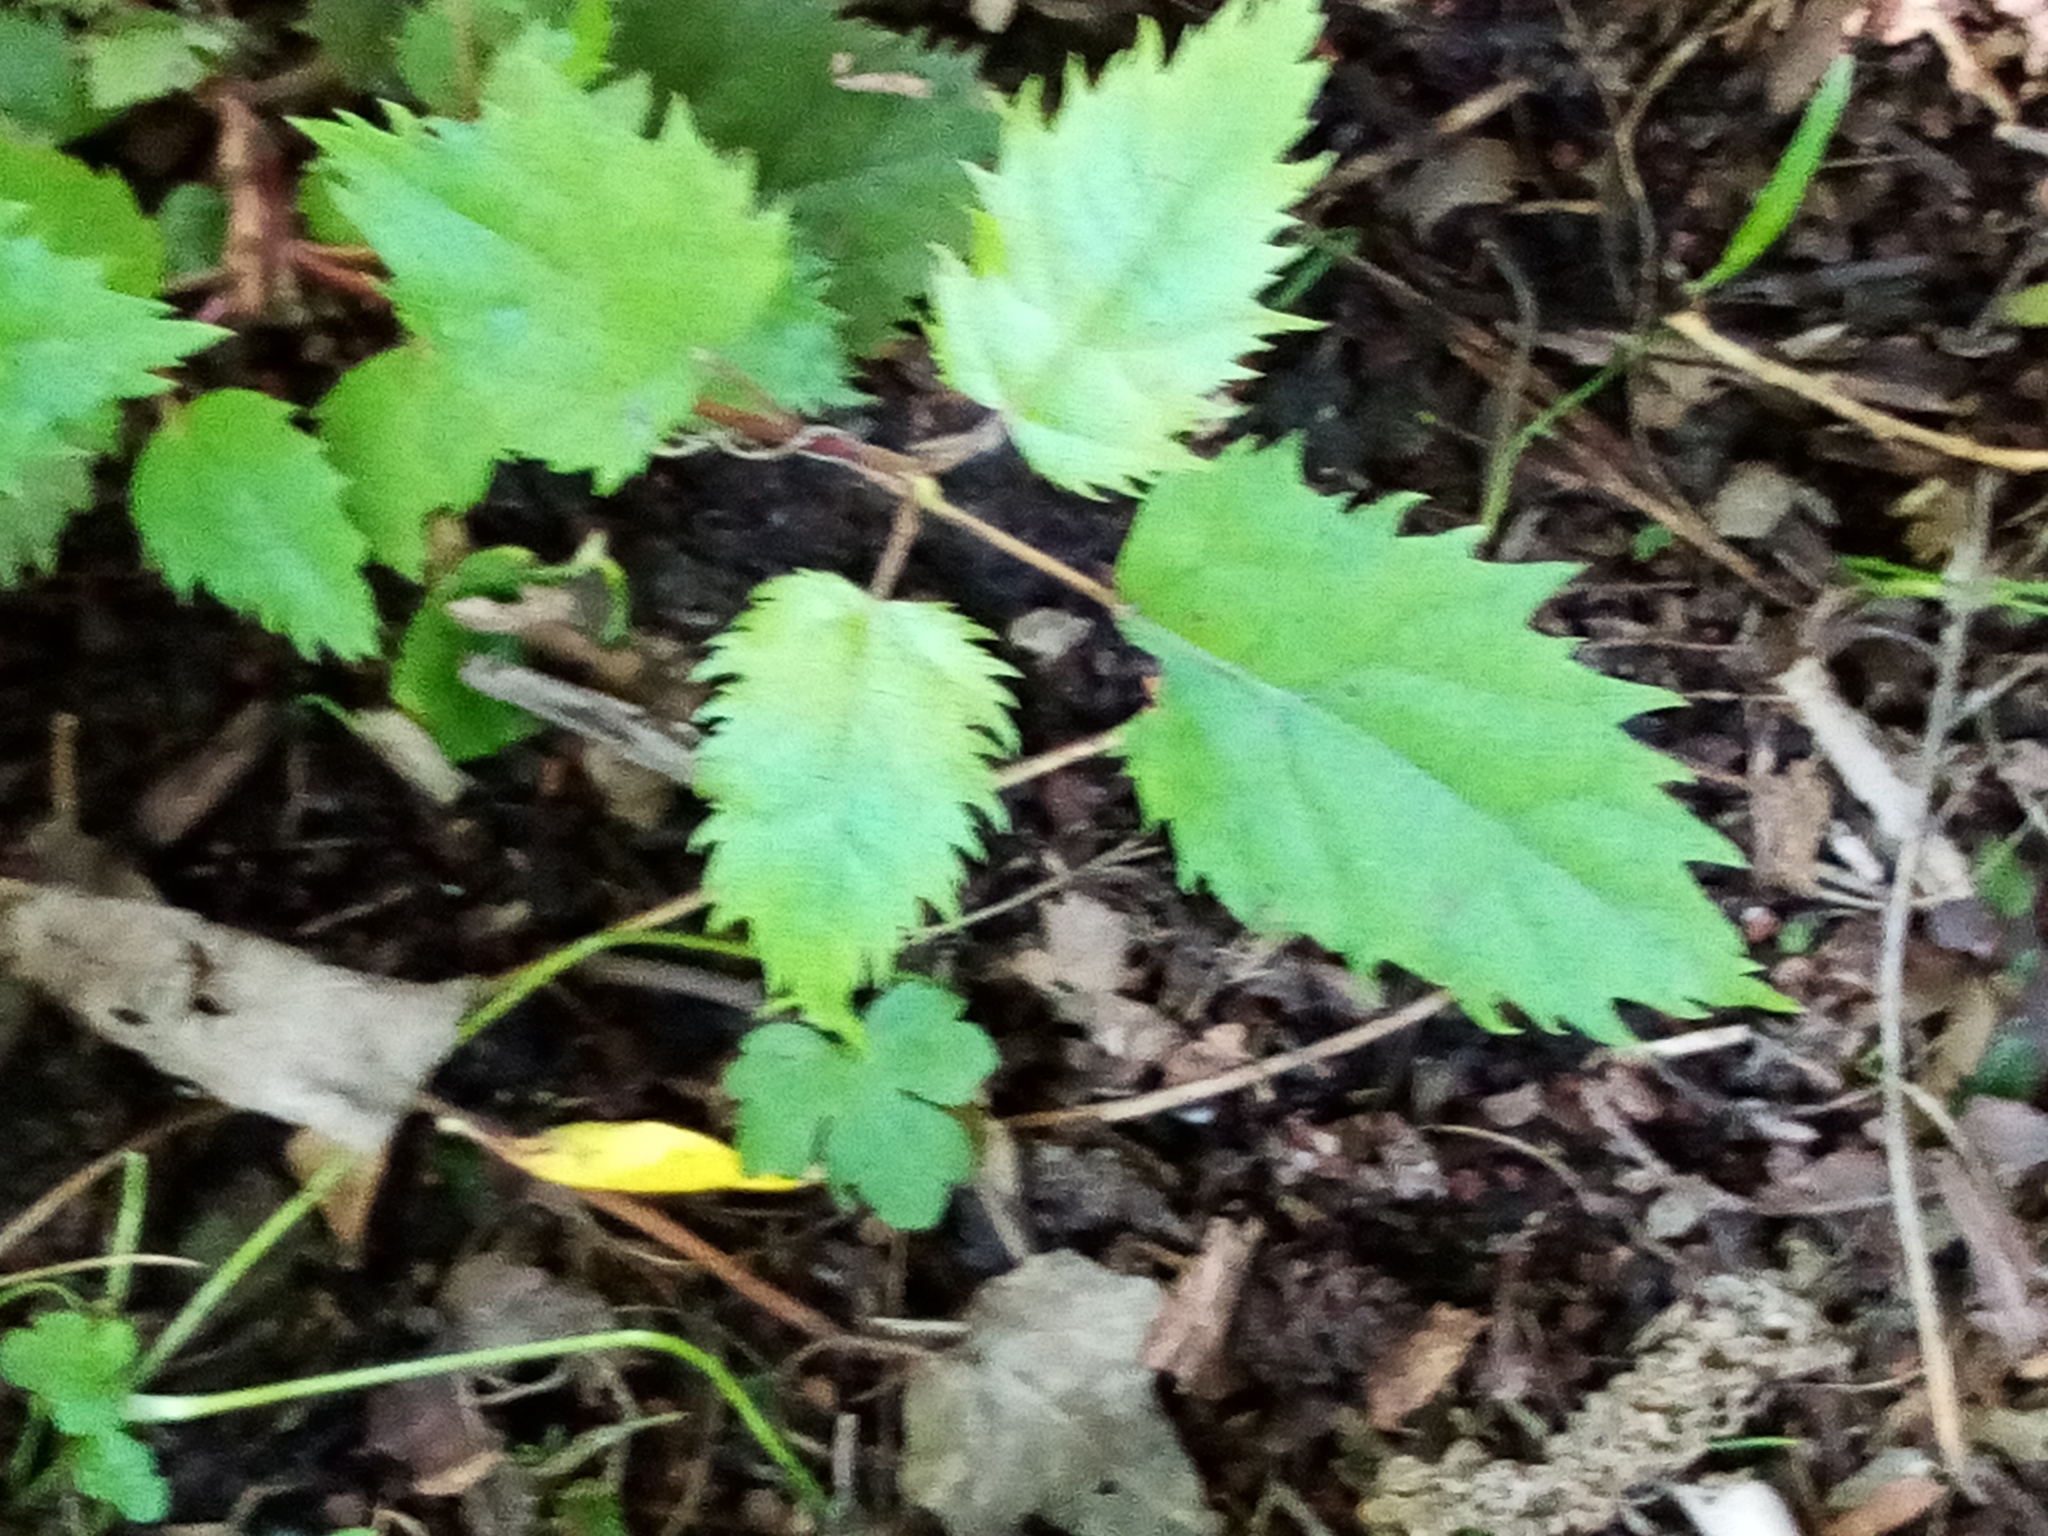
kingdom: Plantae
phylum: Tracheophyta
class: Magnoliopsida
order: Oxalidales
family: Elaeocarpaceae
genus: Aristotelia
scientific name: Aristotelia serrata
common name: New zealand wineberry
